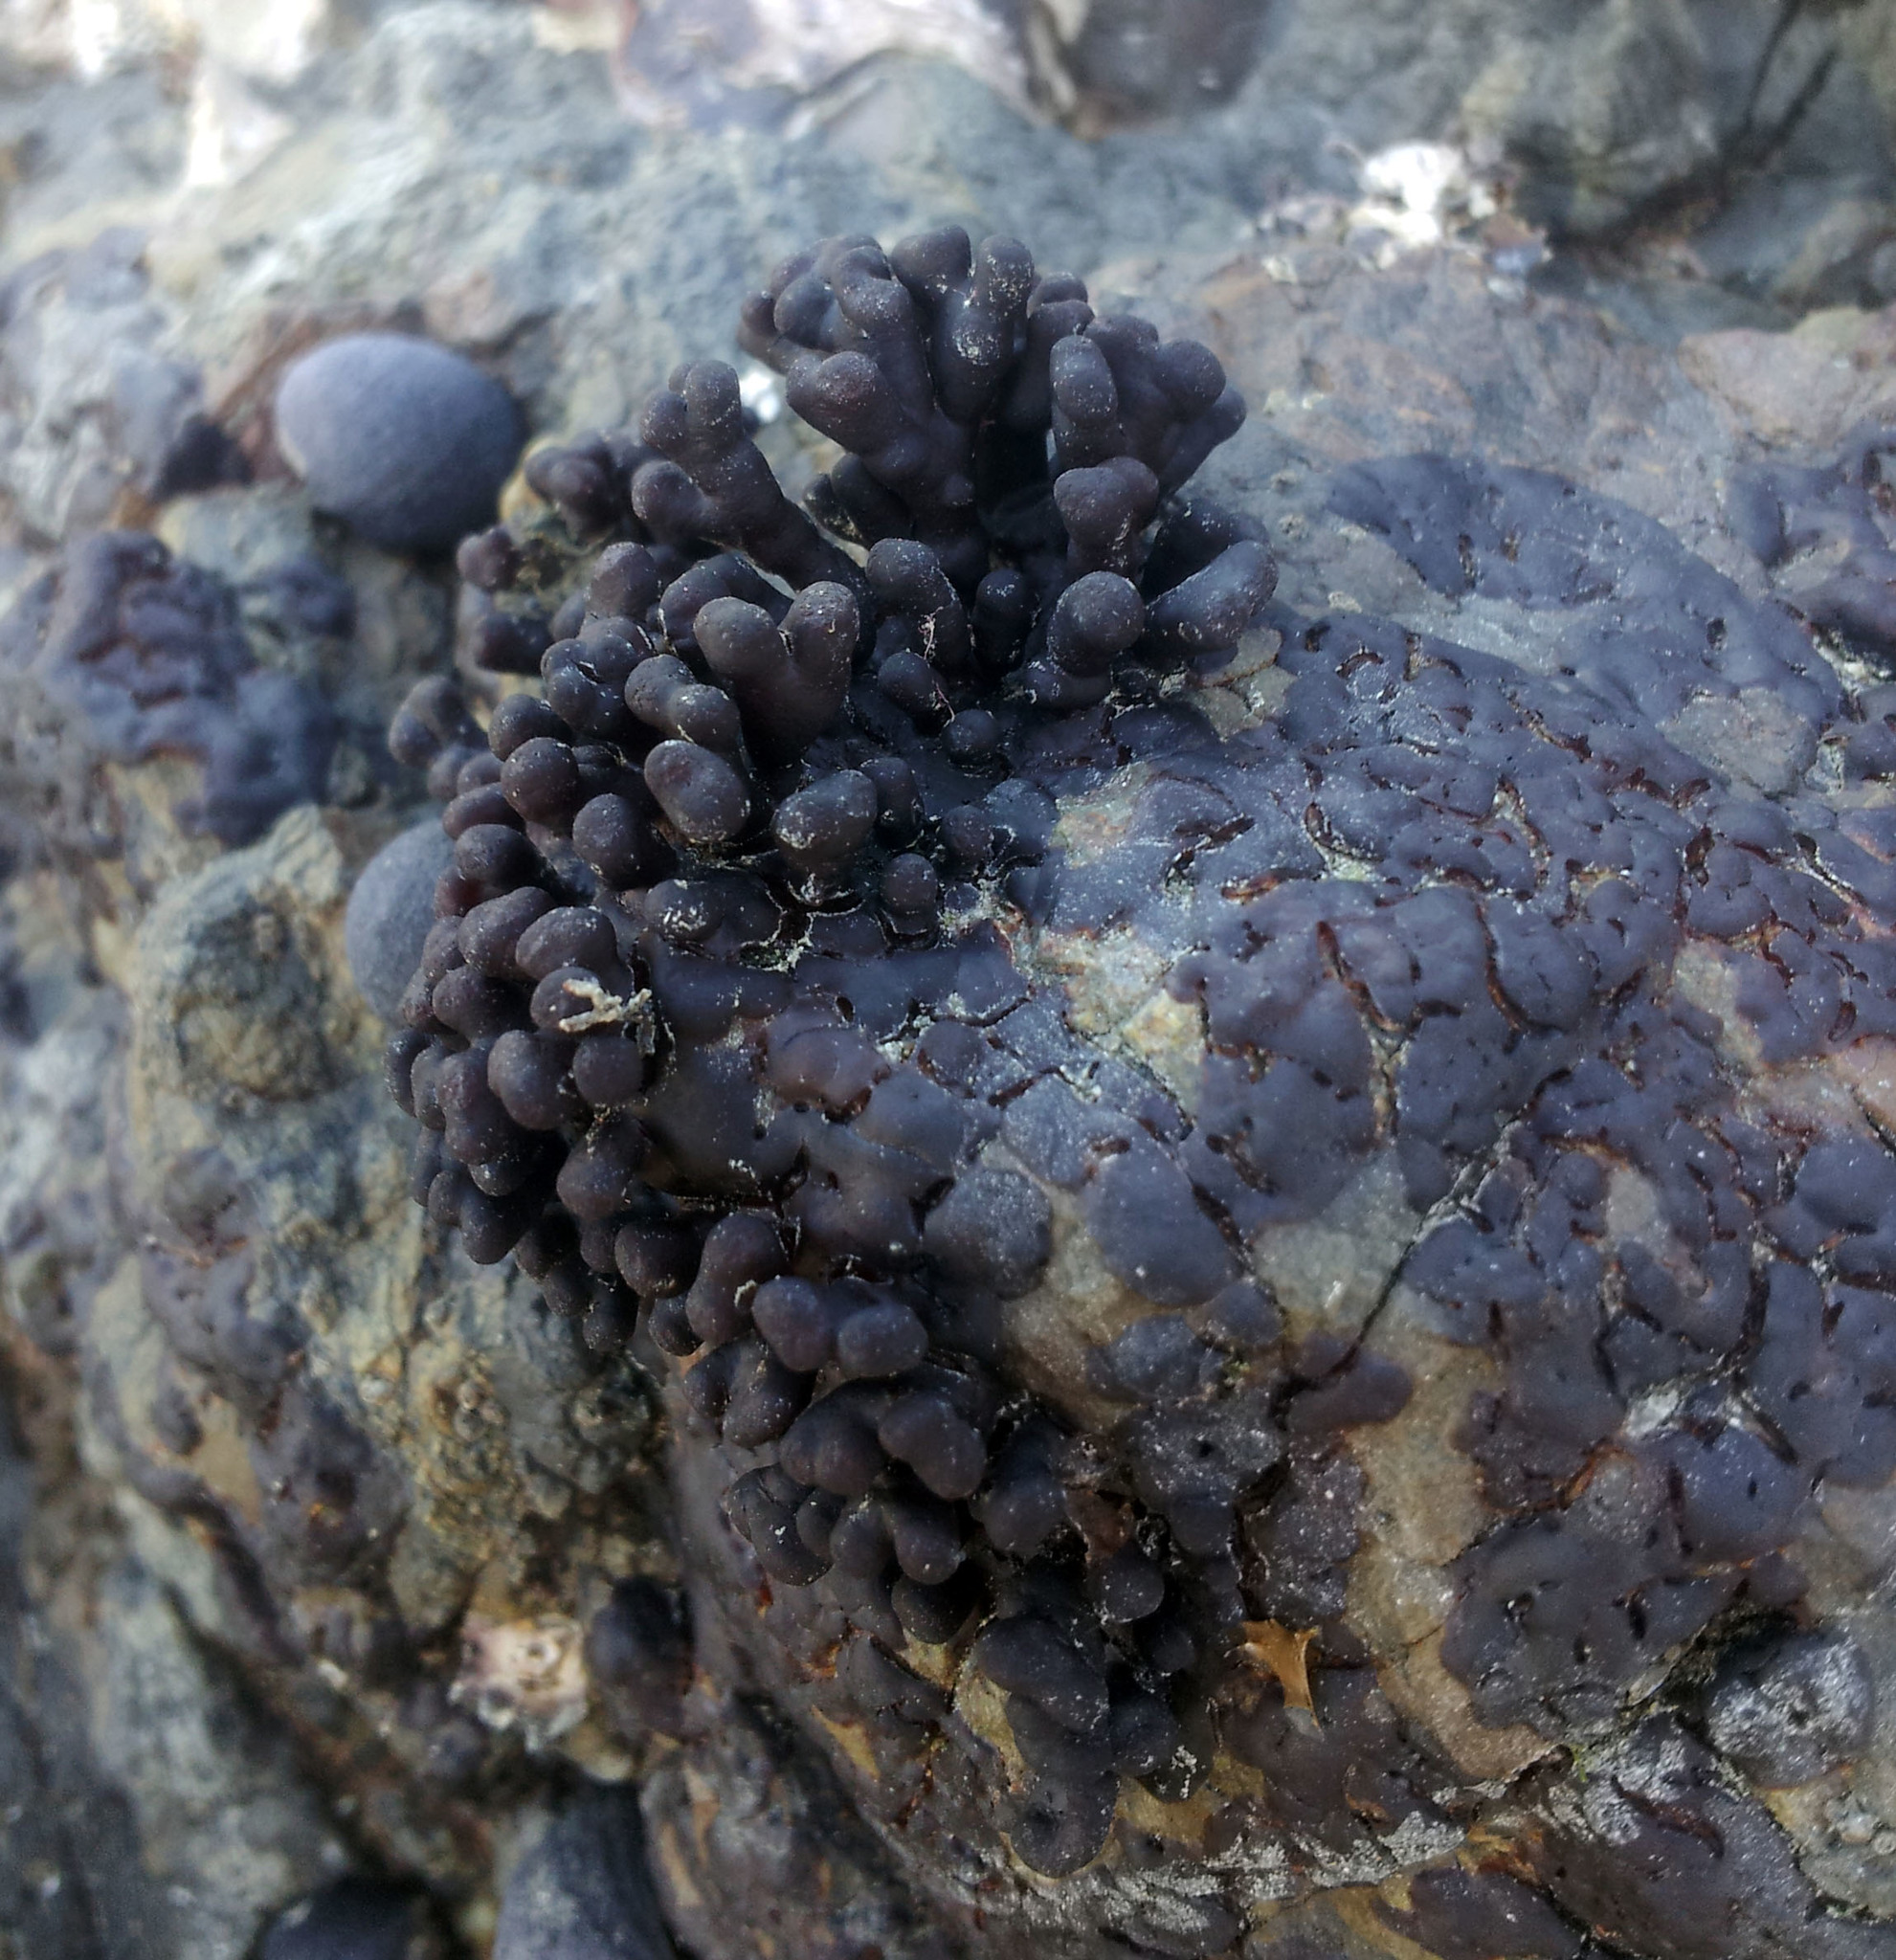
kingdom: Plantae
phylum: Rhodophyta
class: Florideophyceae
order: Hildenbrandiales
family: Hildenbrandiaceae
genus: Apophlaea
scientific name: Apophlaea sinclairii
